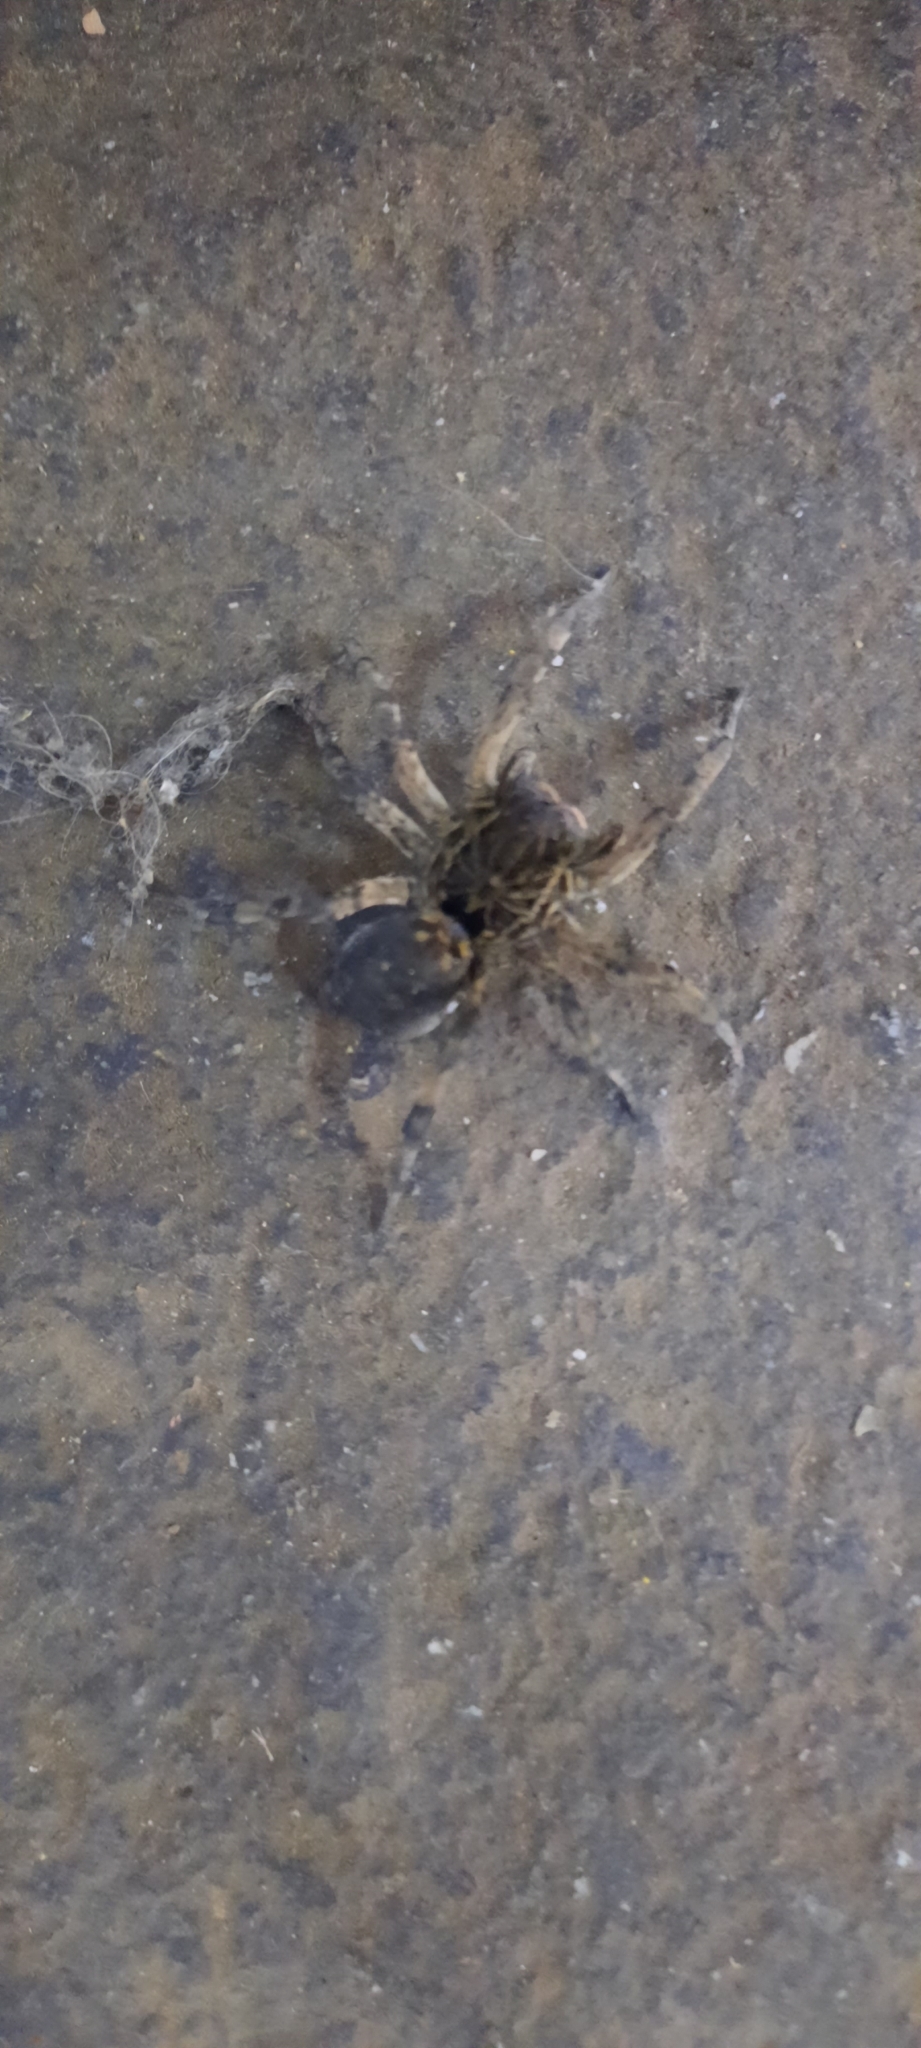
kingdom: Animalia
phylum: Arthropoda
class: Arachnida
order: Araneae
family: Lycosidae
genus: Geolycosa
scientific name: Geolycosa vultuosa
